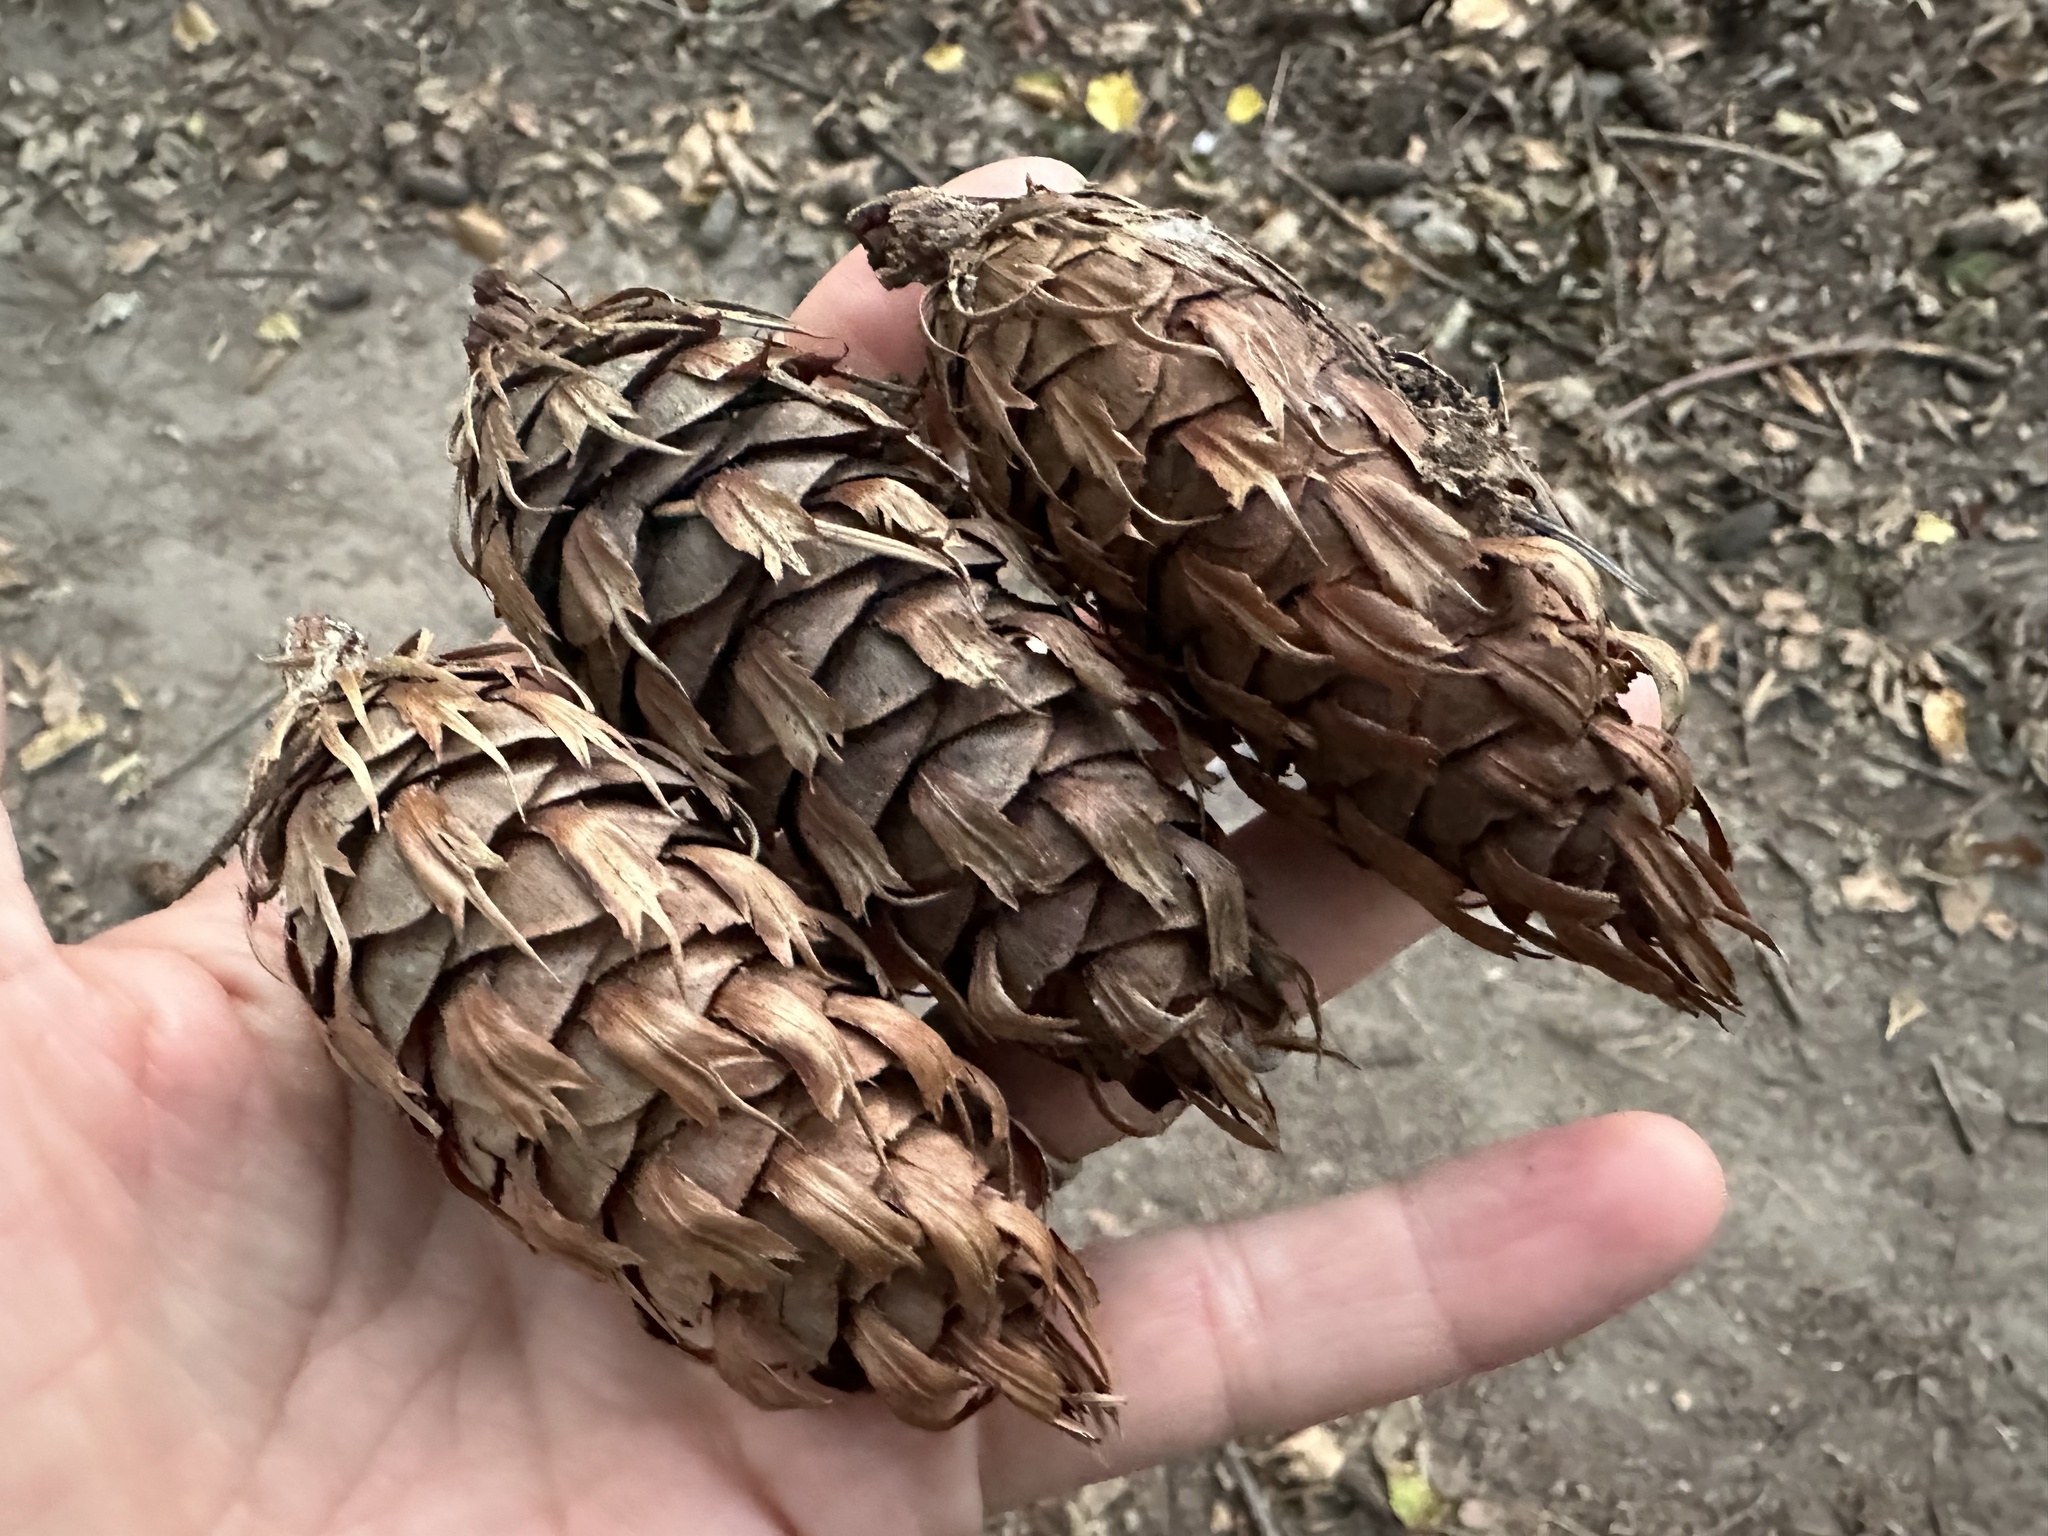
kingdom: Plantae
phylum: Tracheophyta
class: Pinopsida
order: Pinales
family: Pinaceae
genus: Pseudotsuga
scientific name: Pseudotsuga menziesii
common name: Douglas fir
